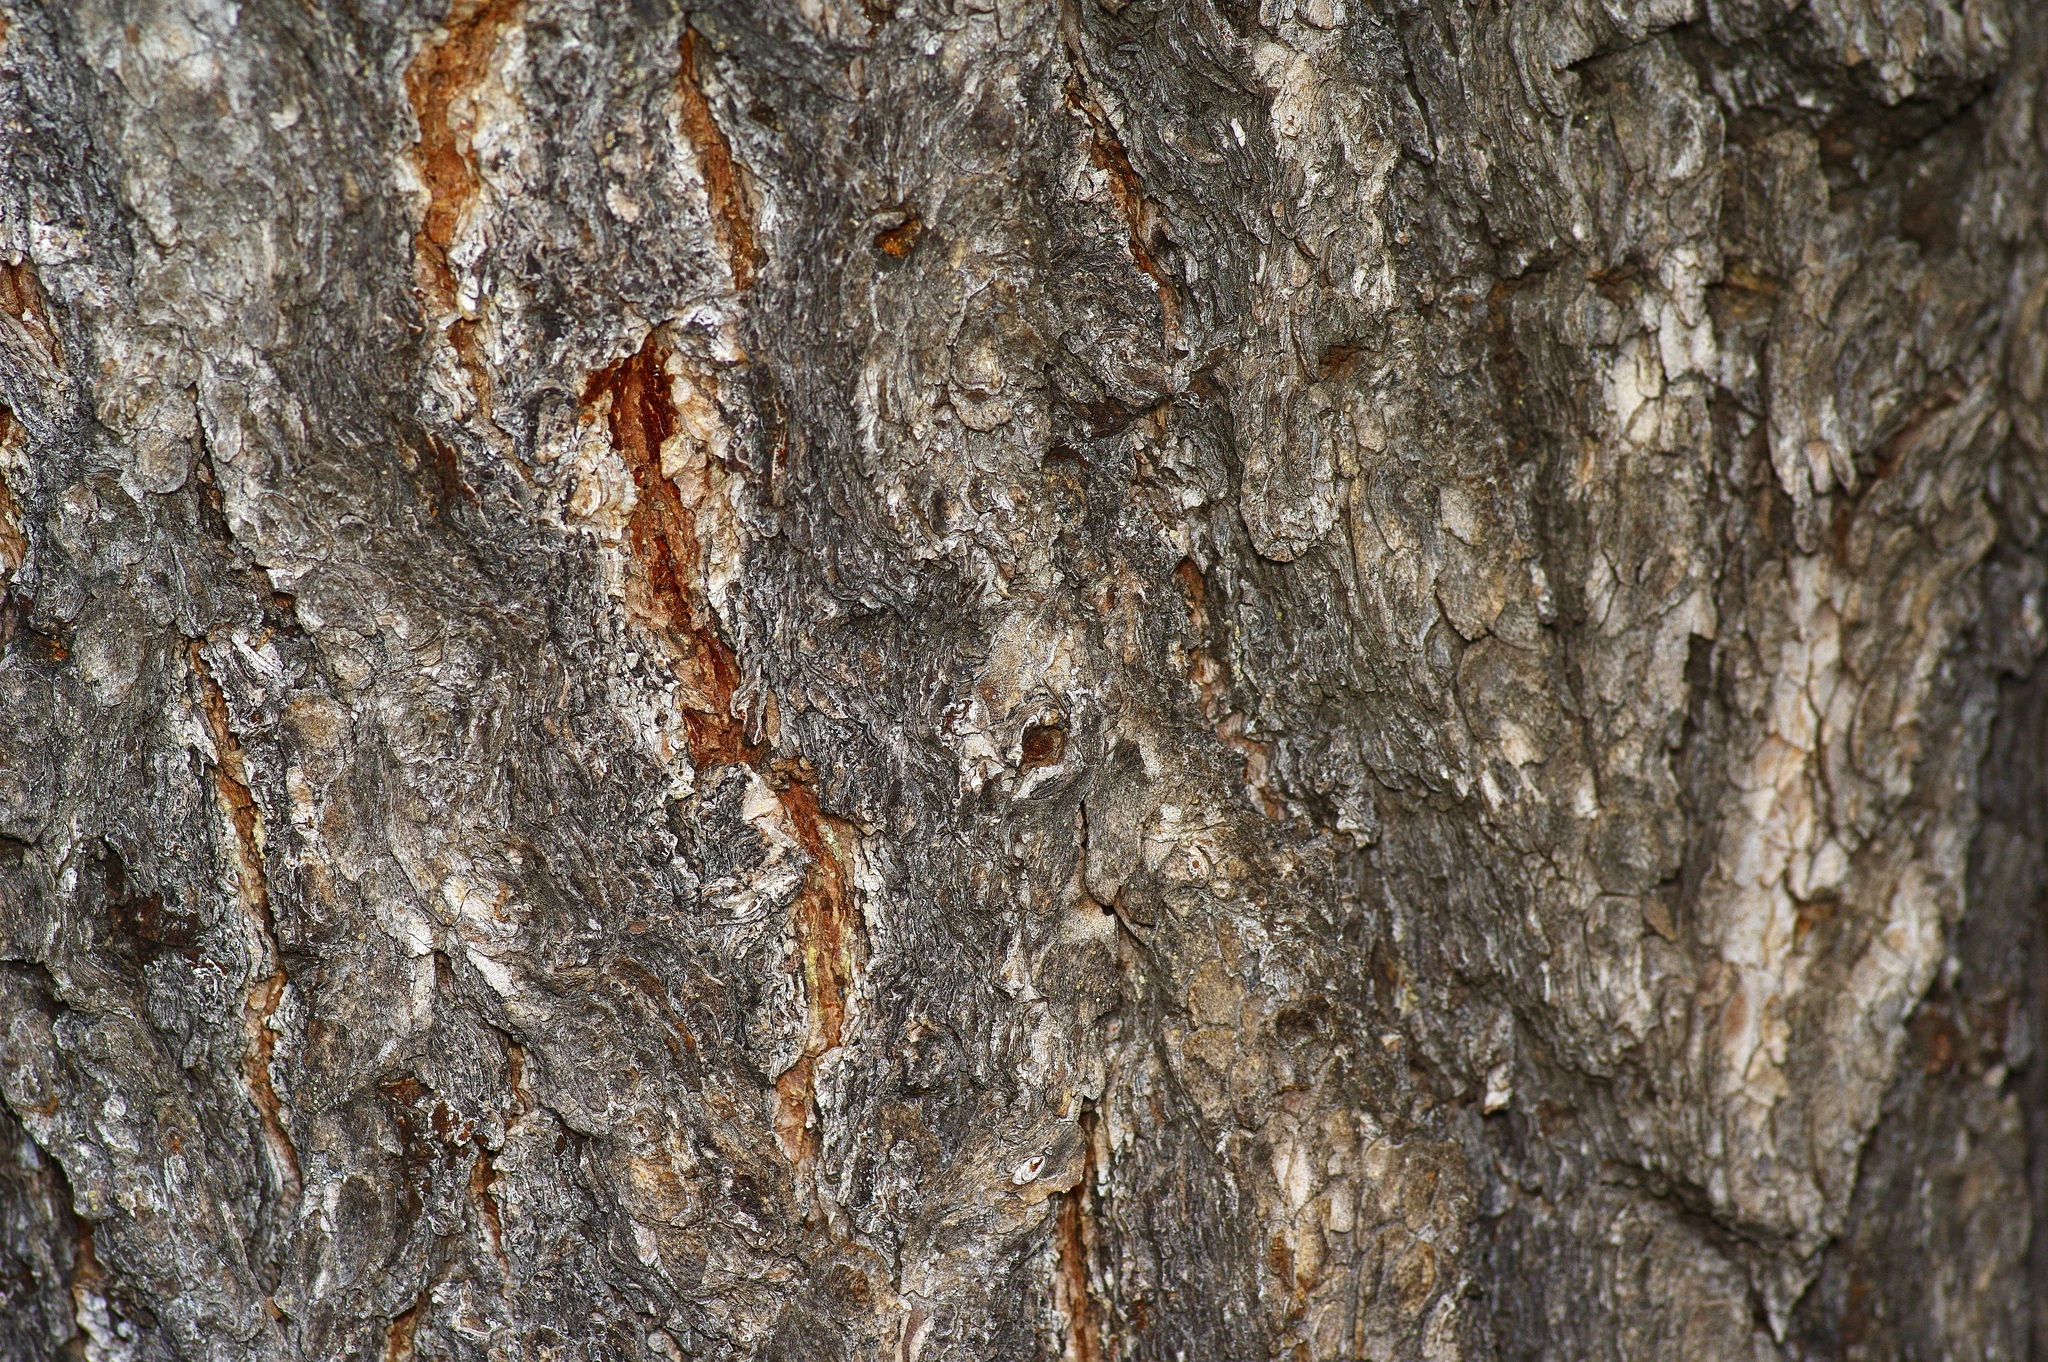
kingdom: Plantae
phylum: Tracheophyta
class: Pinopsida
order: Pinales
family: Pinaceae
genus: Pinus
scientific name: Pinus edulis
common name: Colorado pinyon
